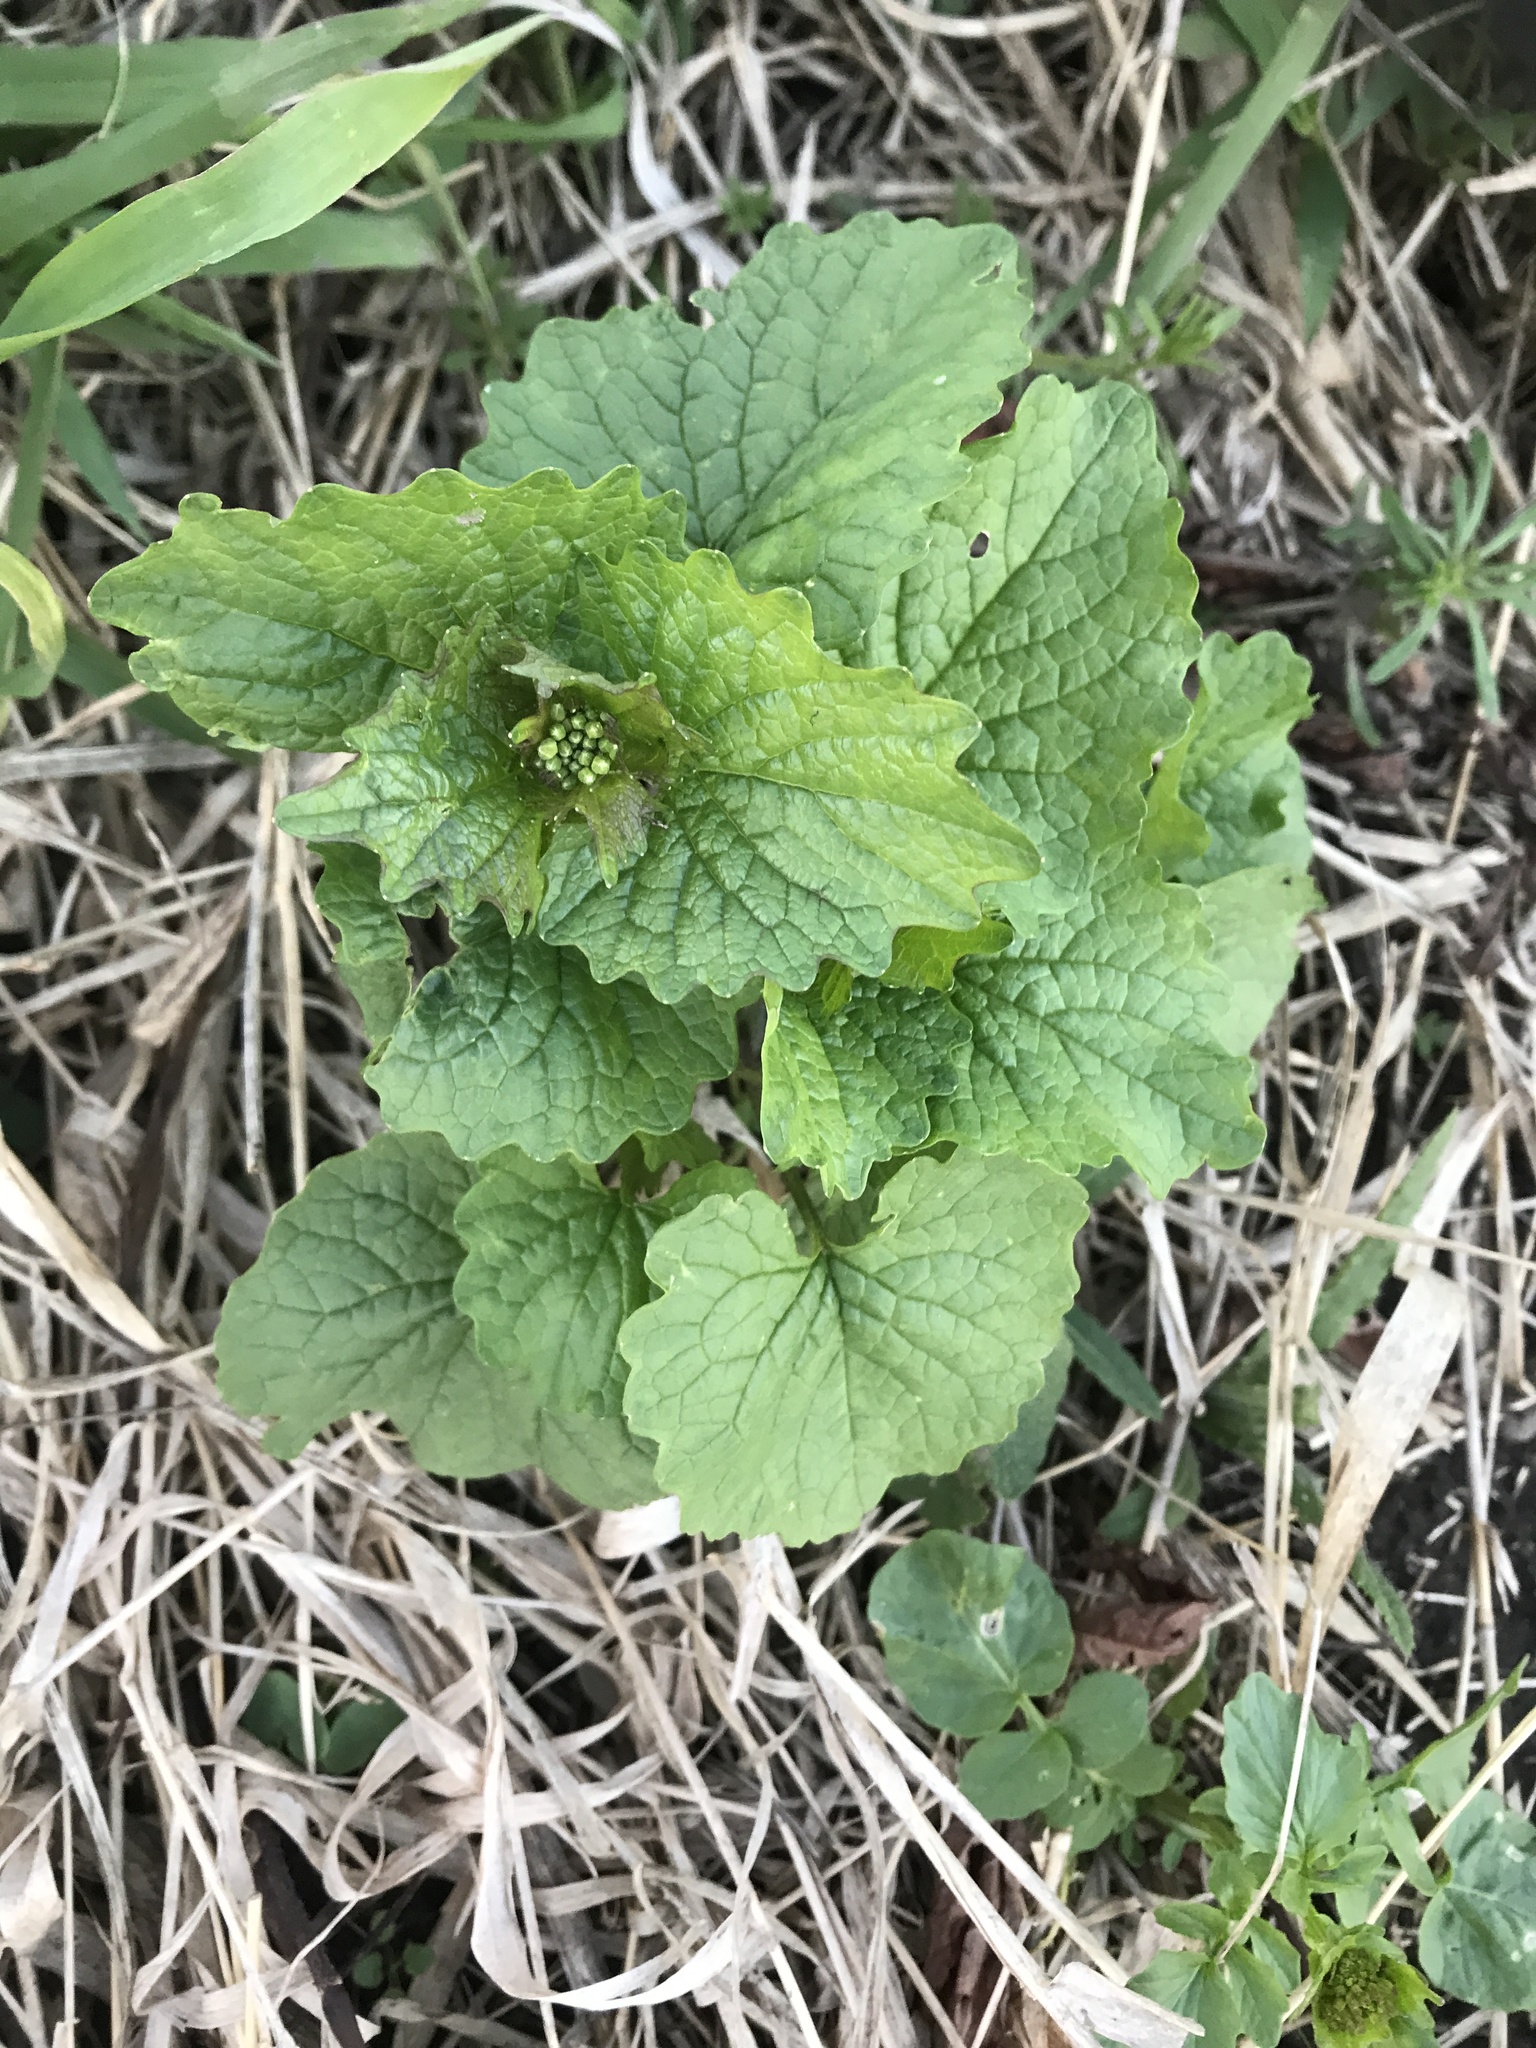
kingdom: Plantae
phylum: Tracheophyta
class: Magnoliopsida
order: Brassicales
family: Brassicaceae
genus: Alliaria
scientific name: Alliaria petiolata
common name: Garlic mustard
